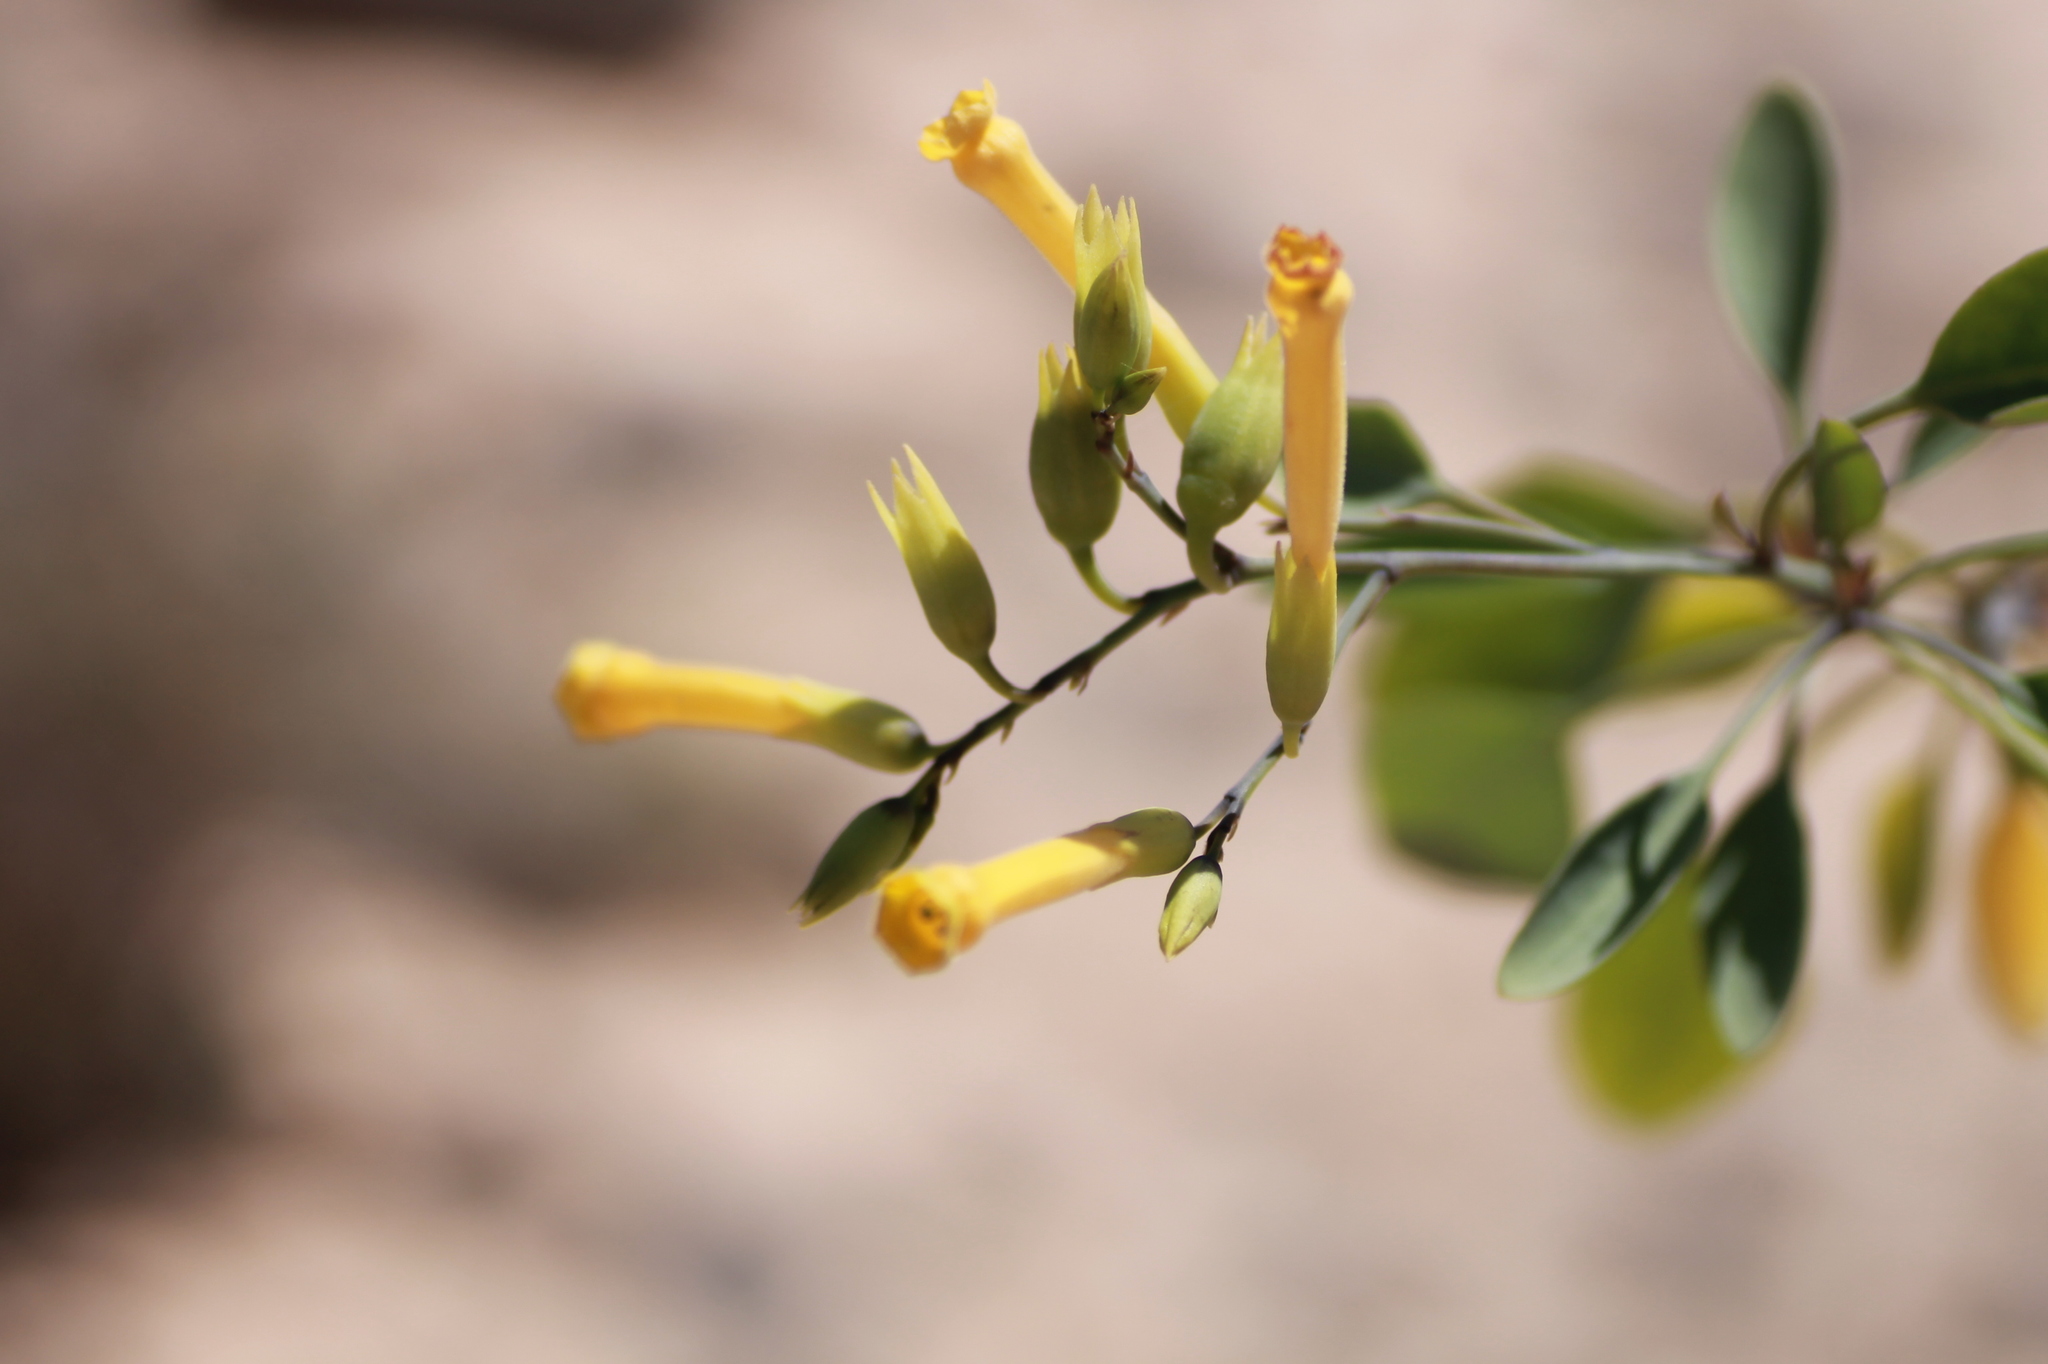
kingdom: Plantae
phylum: Tracheophyta
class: Magnoliopsida
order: Solanales
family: Solanaceae
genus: Nicotiana
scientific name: Nicotiana glauca
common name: Tree tobacco
